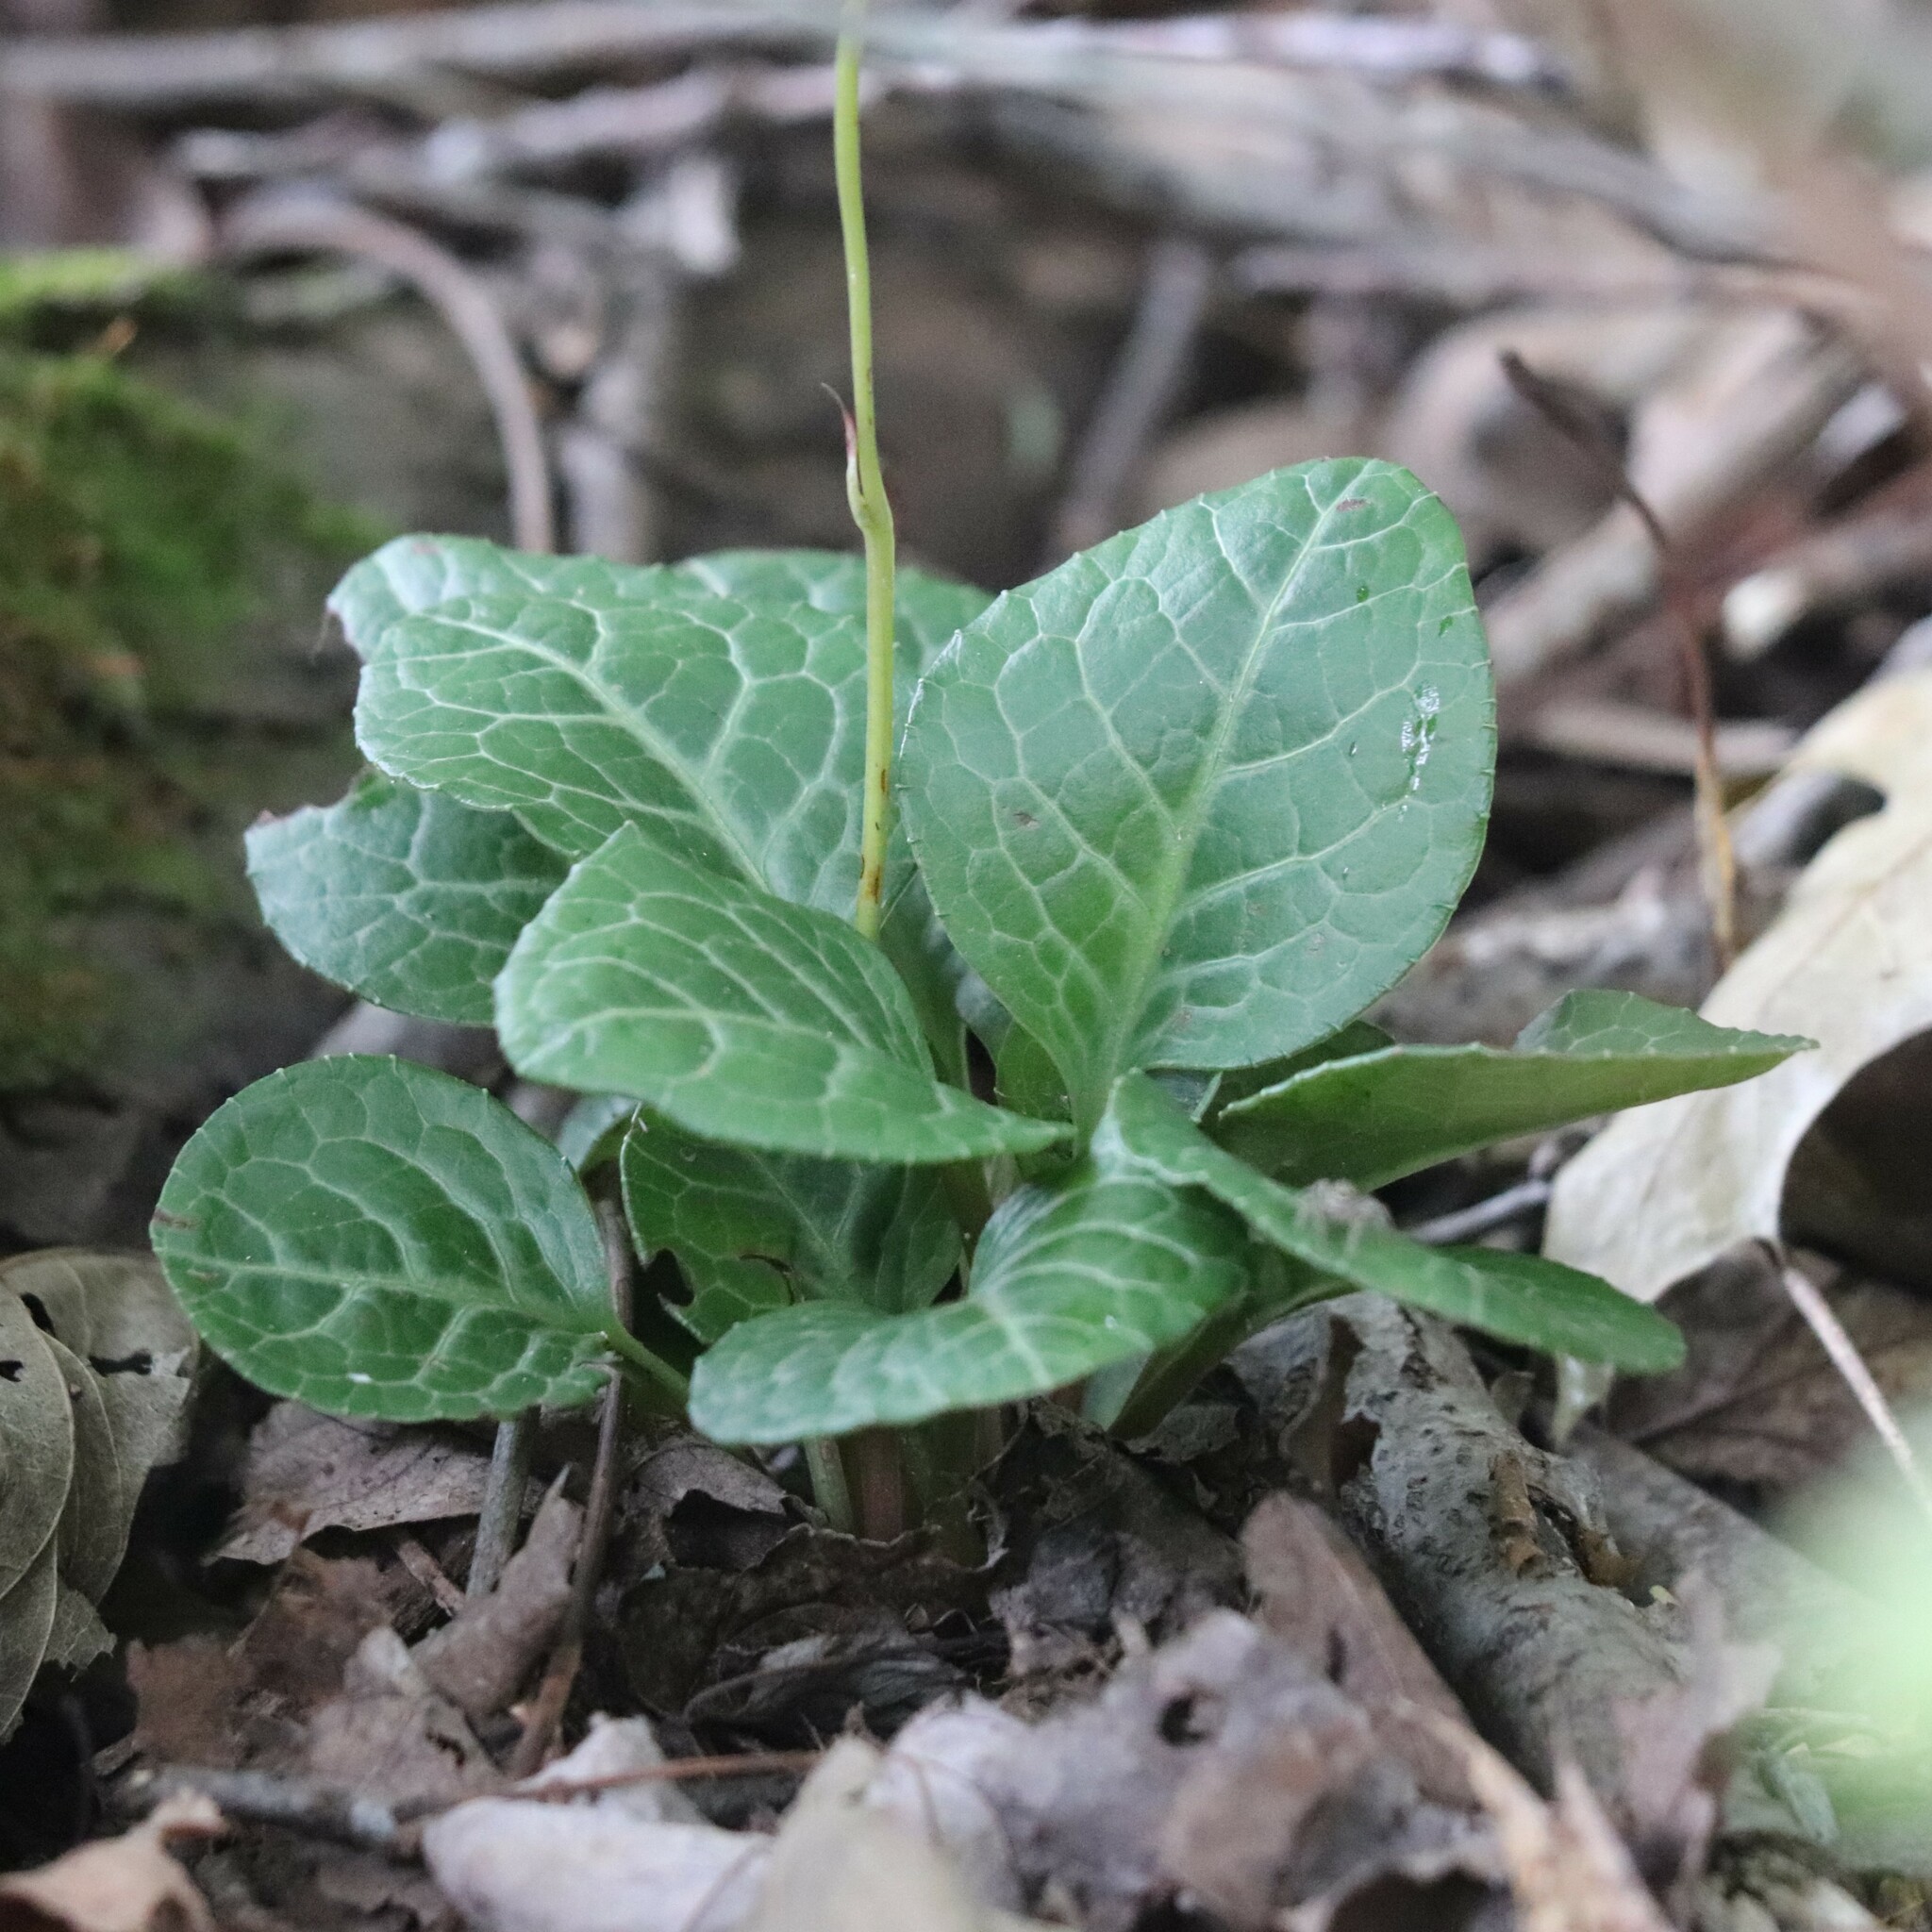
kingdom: Plantae
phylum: Tracheophyta
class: Magnoliopsida
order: Ericales
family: Ericaceae
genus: Pyrola
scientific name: Pyrola americana
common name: American wintergreen
